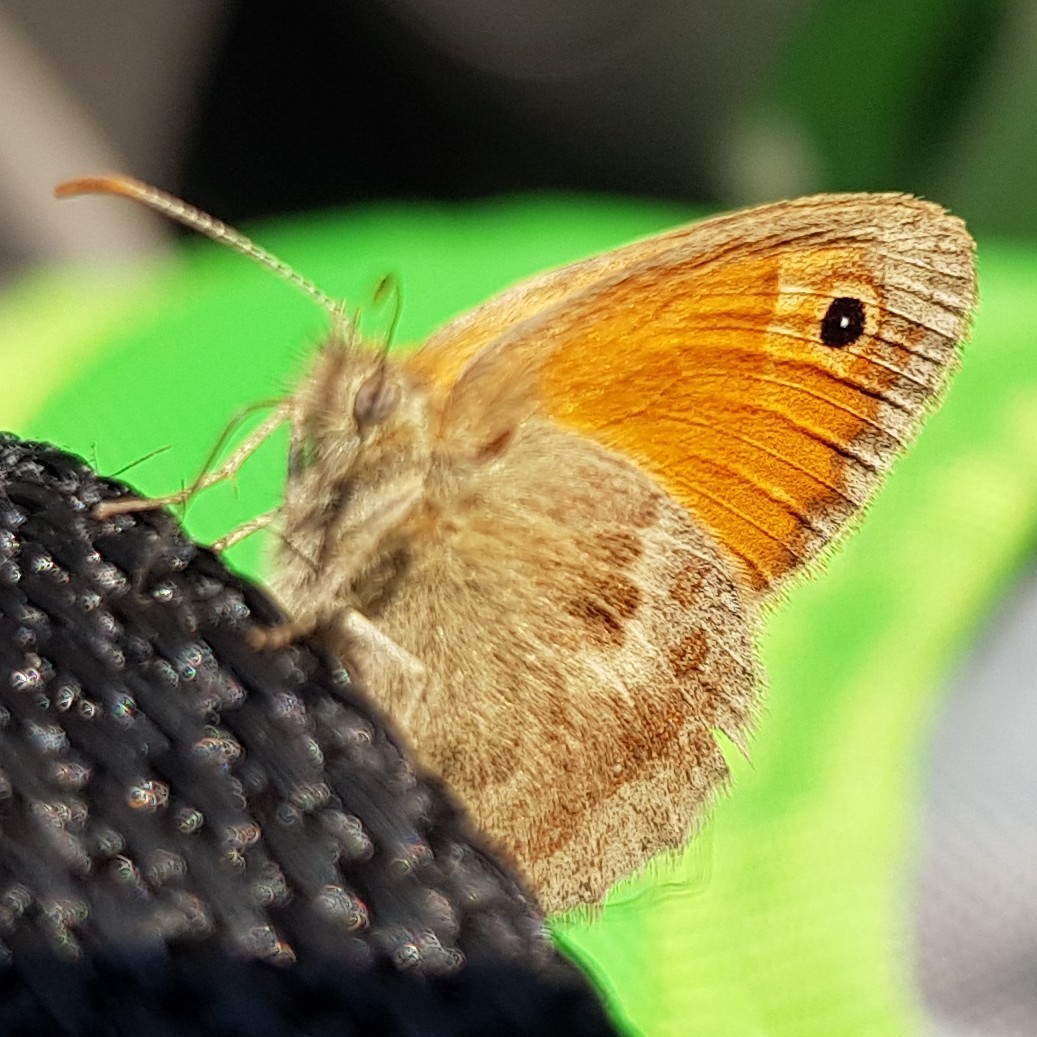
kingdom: Animalia
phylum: Arthropoda
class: Insecta
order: Lepidoptera
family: Nymphalidae
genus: Coenonympha
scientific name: Coenonympha pamphilus
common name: Small heath
